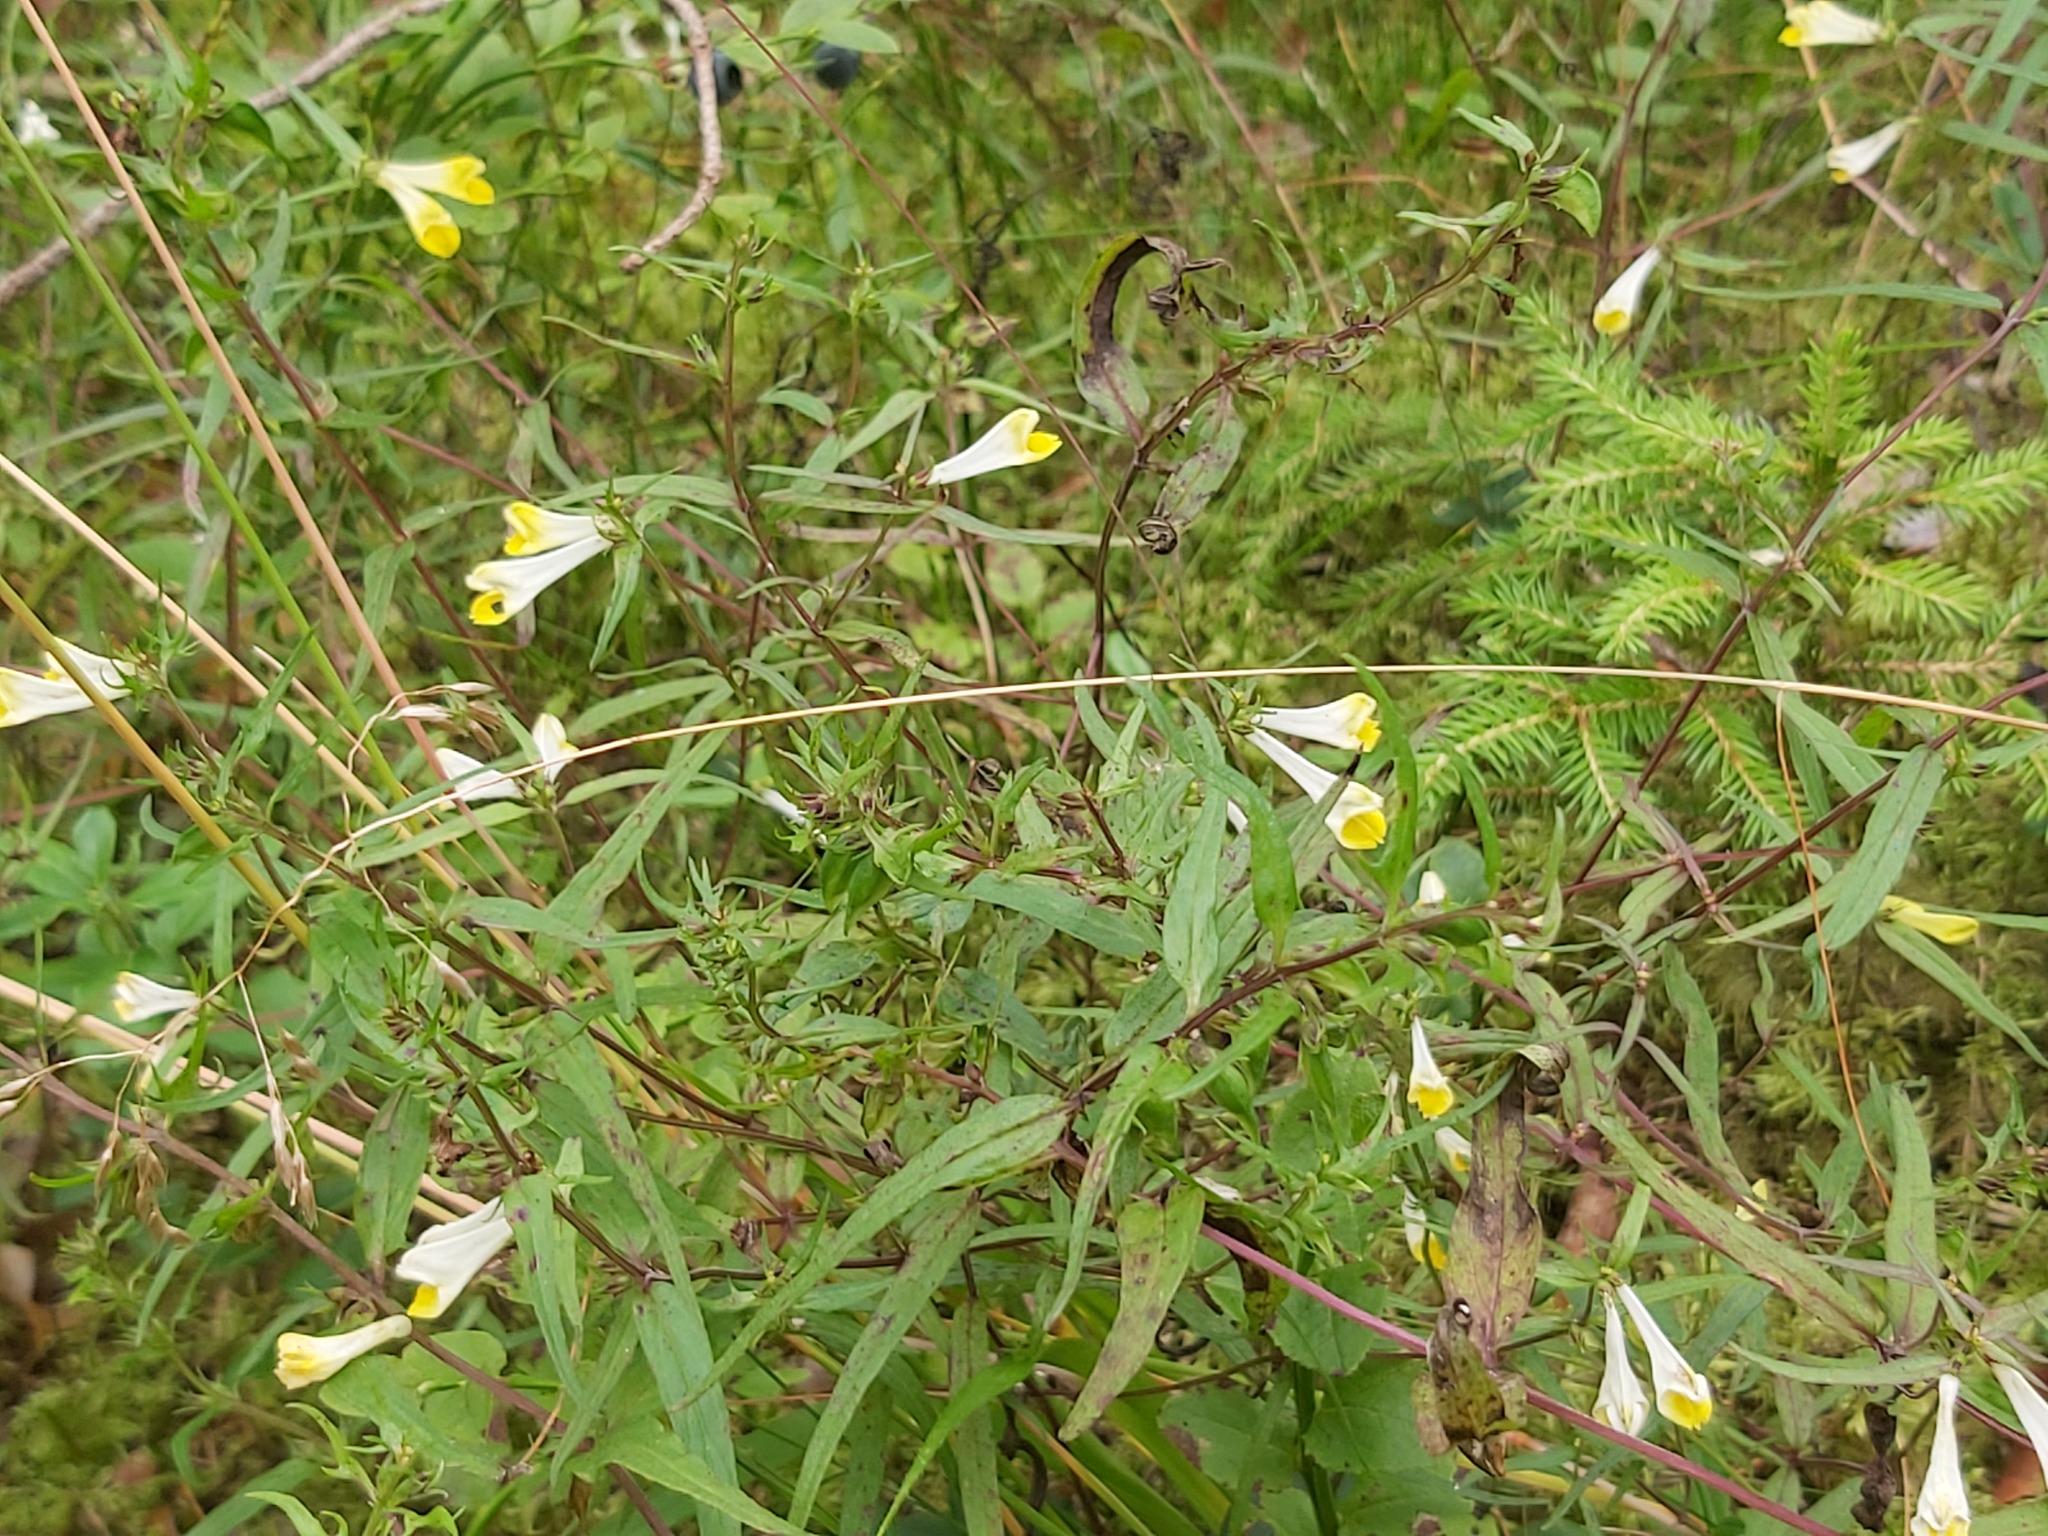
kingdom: Plantae
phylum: Tracheophyta
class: Magnoliopsida
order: Lamiales
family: Orobanchaceae
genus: Melampyrum
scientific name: Melampyrum pratense
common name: Common cow-wheat
